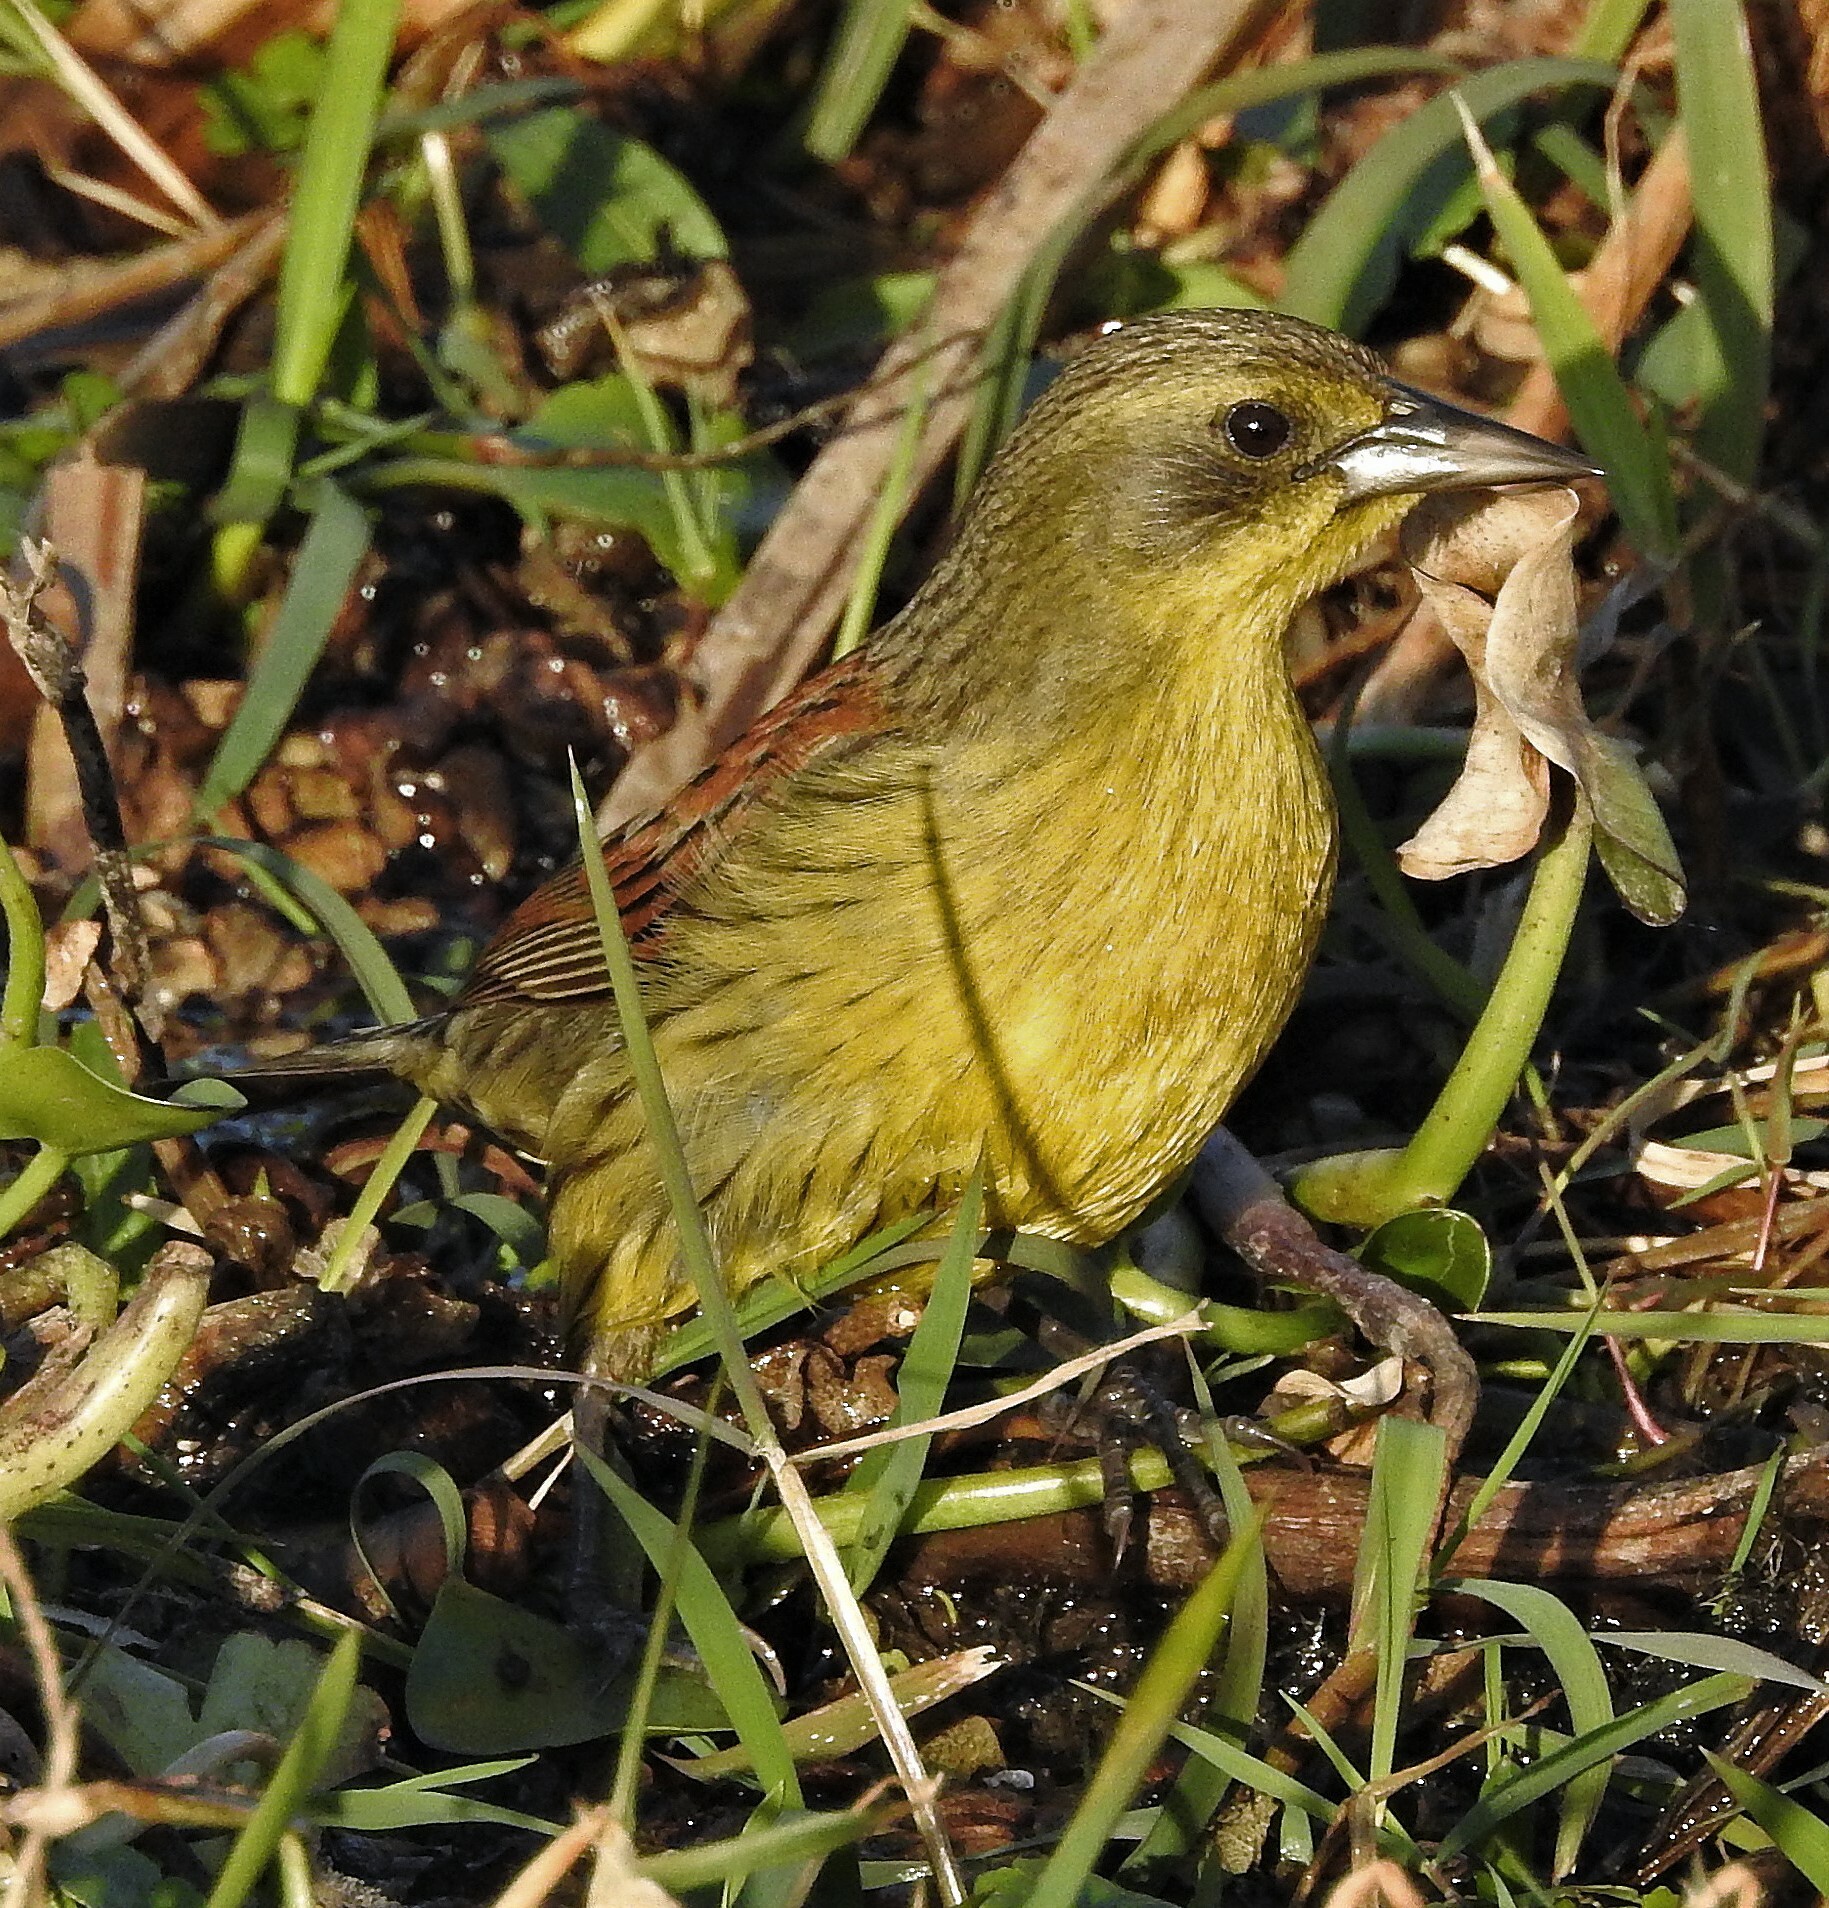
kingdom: Animalia
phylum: Chordata
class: Aves
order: Passeriformes
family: Icteridae
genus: Agelasticus
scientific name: Agelasticus cyanopus
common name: Unicolored blackbird
